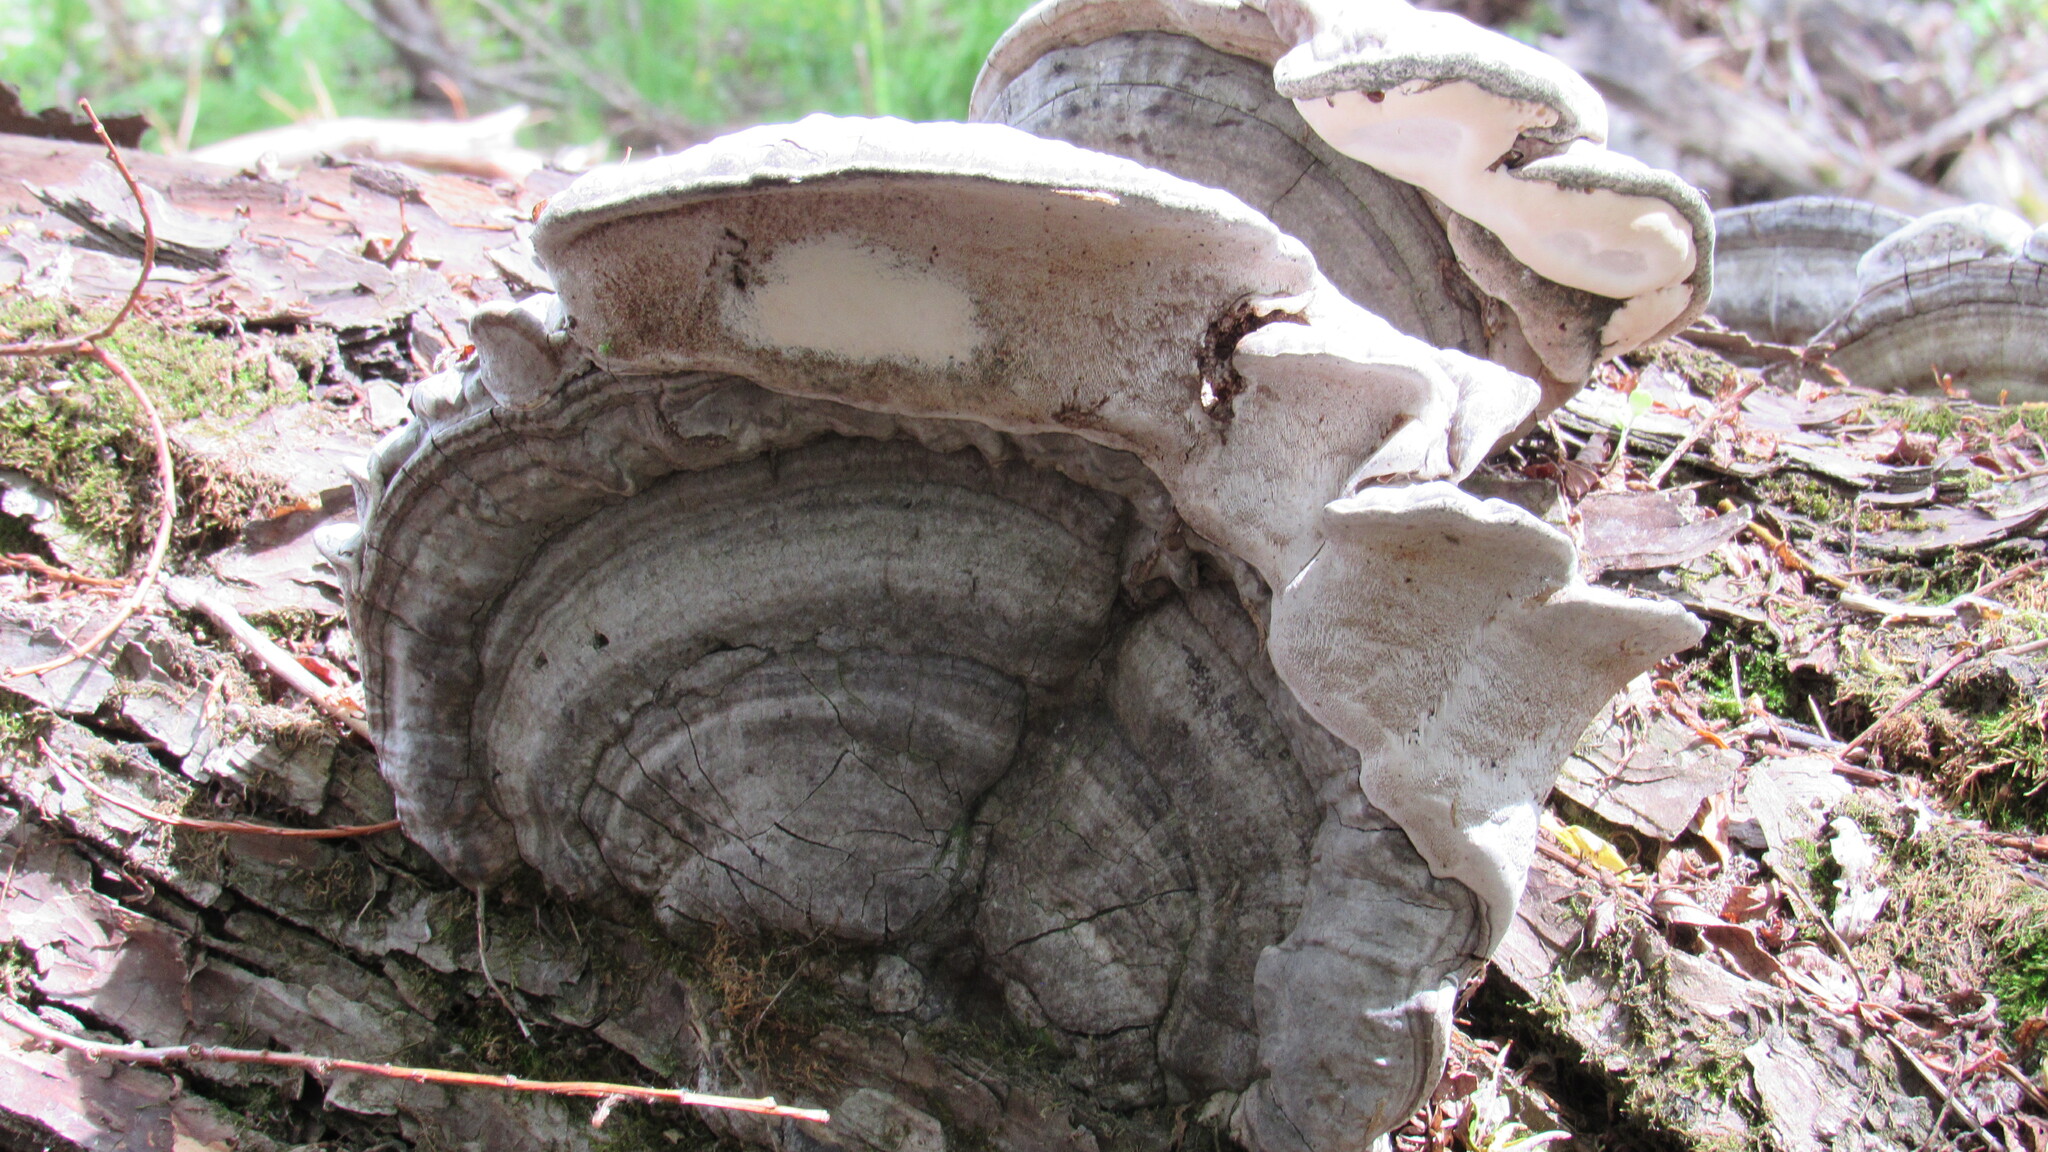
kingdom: Fungi
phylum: Basidiomycota
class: Agaricomycetes
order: Polyporales
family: Polyporaceae
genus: Fomes
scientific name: Fomes fomentarius
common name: Hoof fungus
